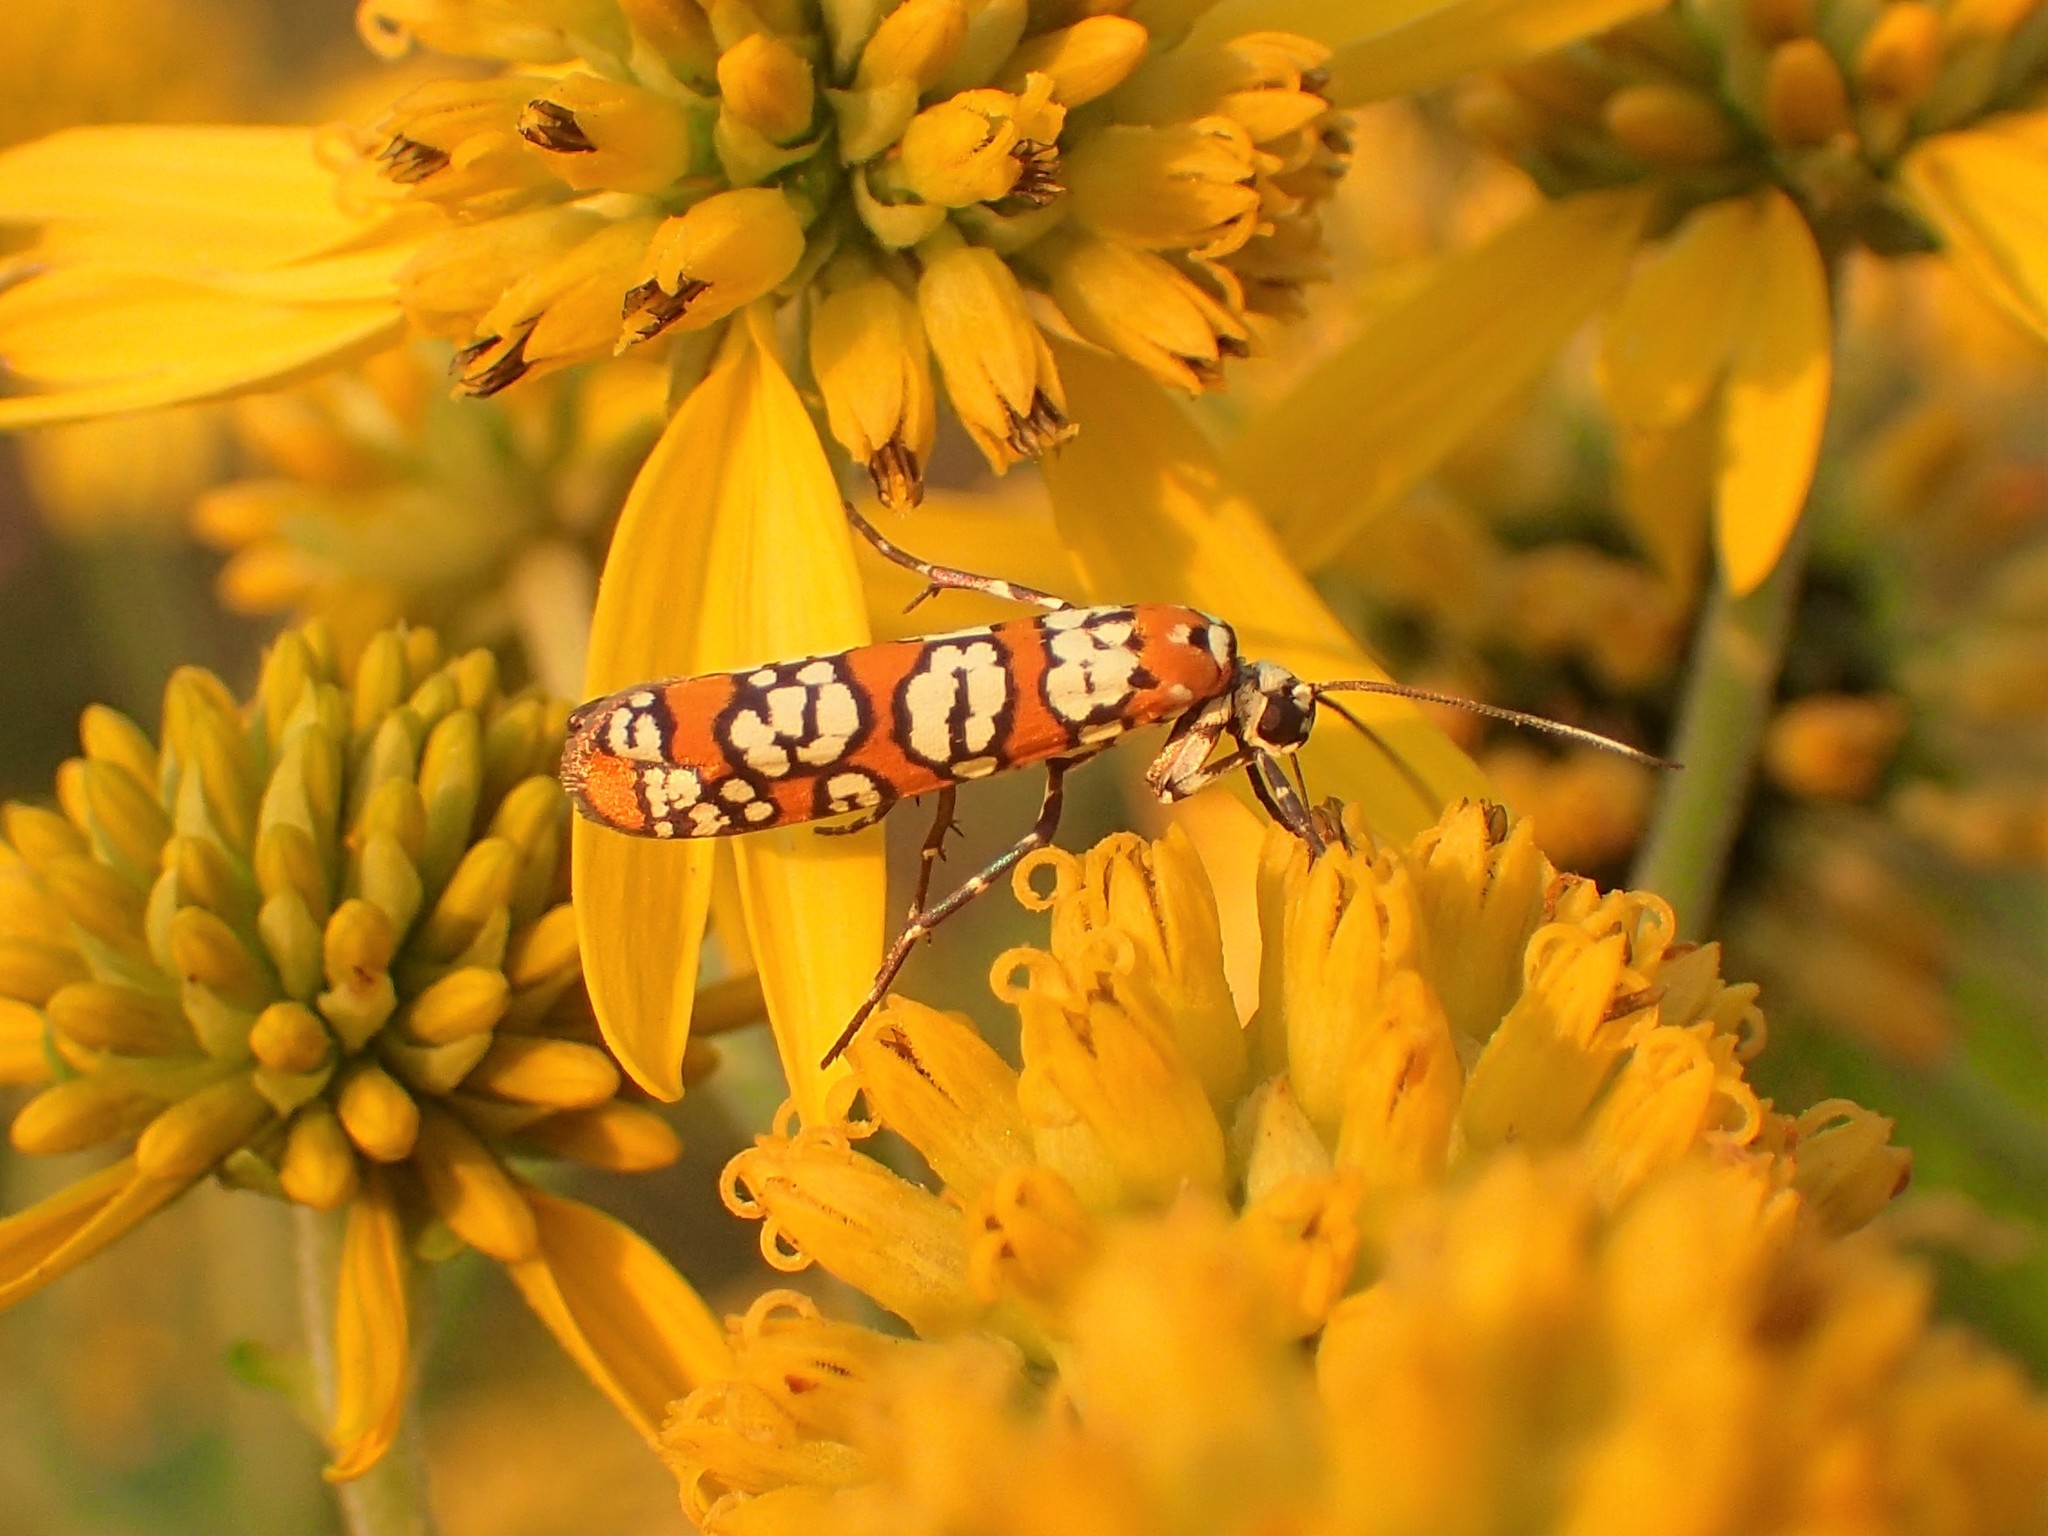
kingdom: Animalia
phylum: Arthropoda
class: Insecta
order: Lepidoptera
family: Attevidae
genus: Atteva
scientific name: Atteva punctella
